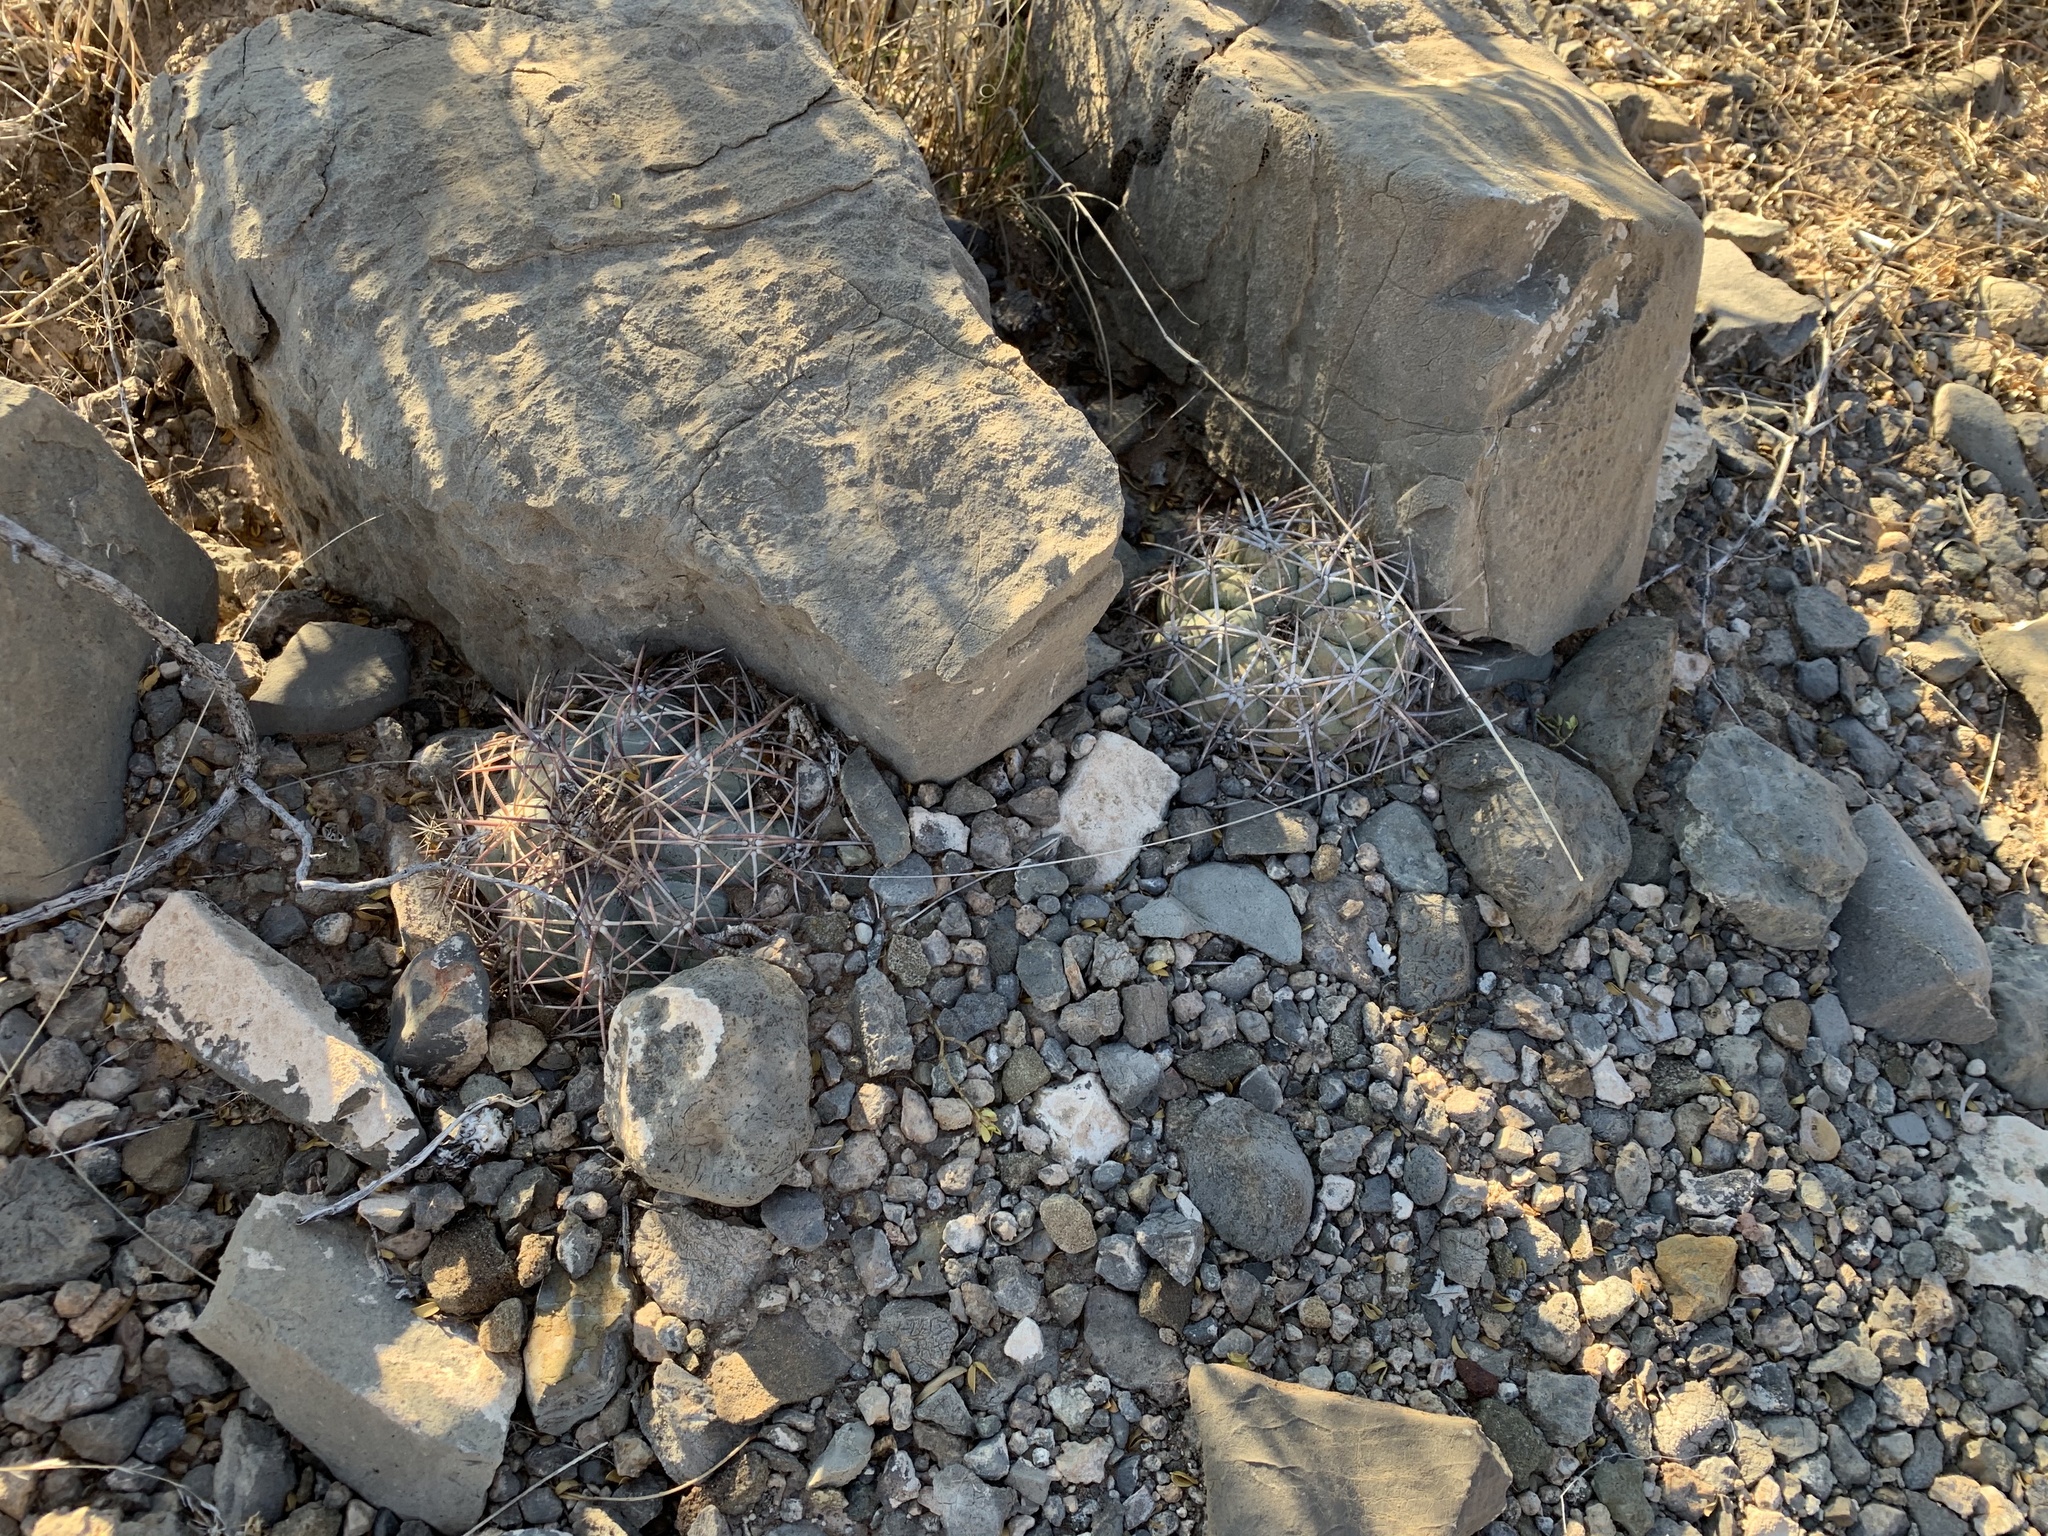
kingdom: Plantae
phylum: Tracheophyta
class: Magnoliopsida
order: Caryophyllales
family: Cactaceae
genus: Echinocactus
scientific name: Echinocactus horizonthalonius
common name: Devilshead
